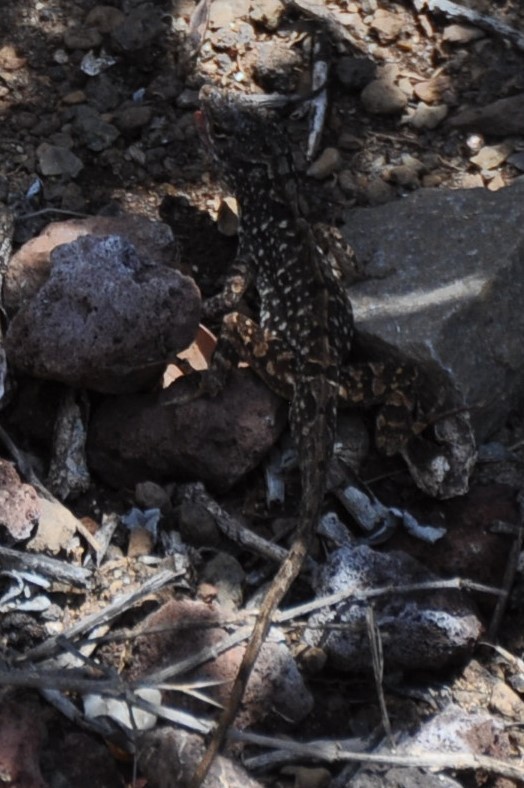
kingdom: Animalia
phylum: Chordata
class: Squamata
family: Dactyloidae
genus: Anolis
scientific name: Anolis sagrei
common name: Brown anole
